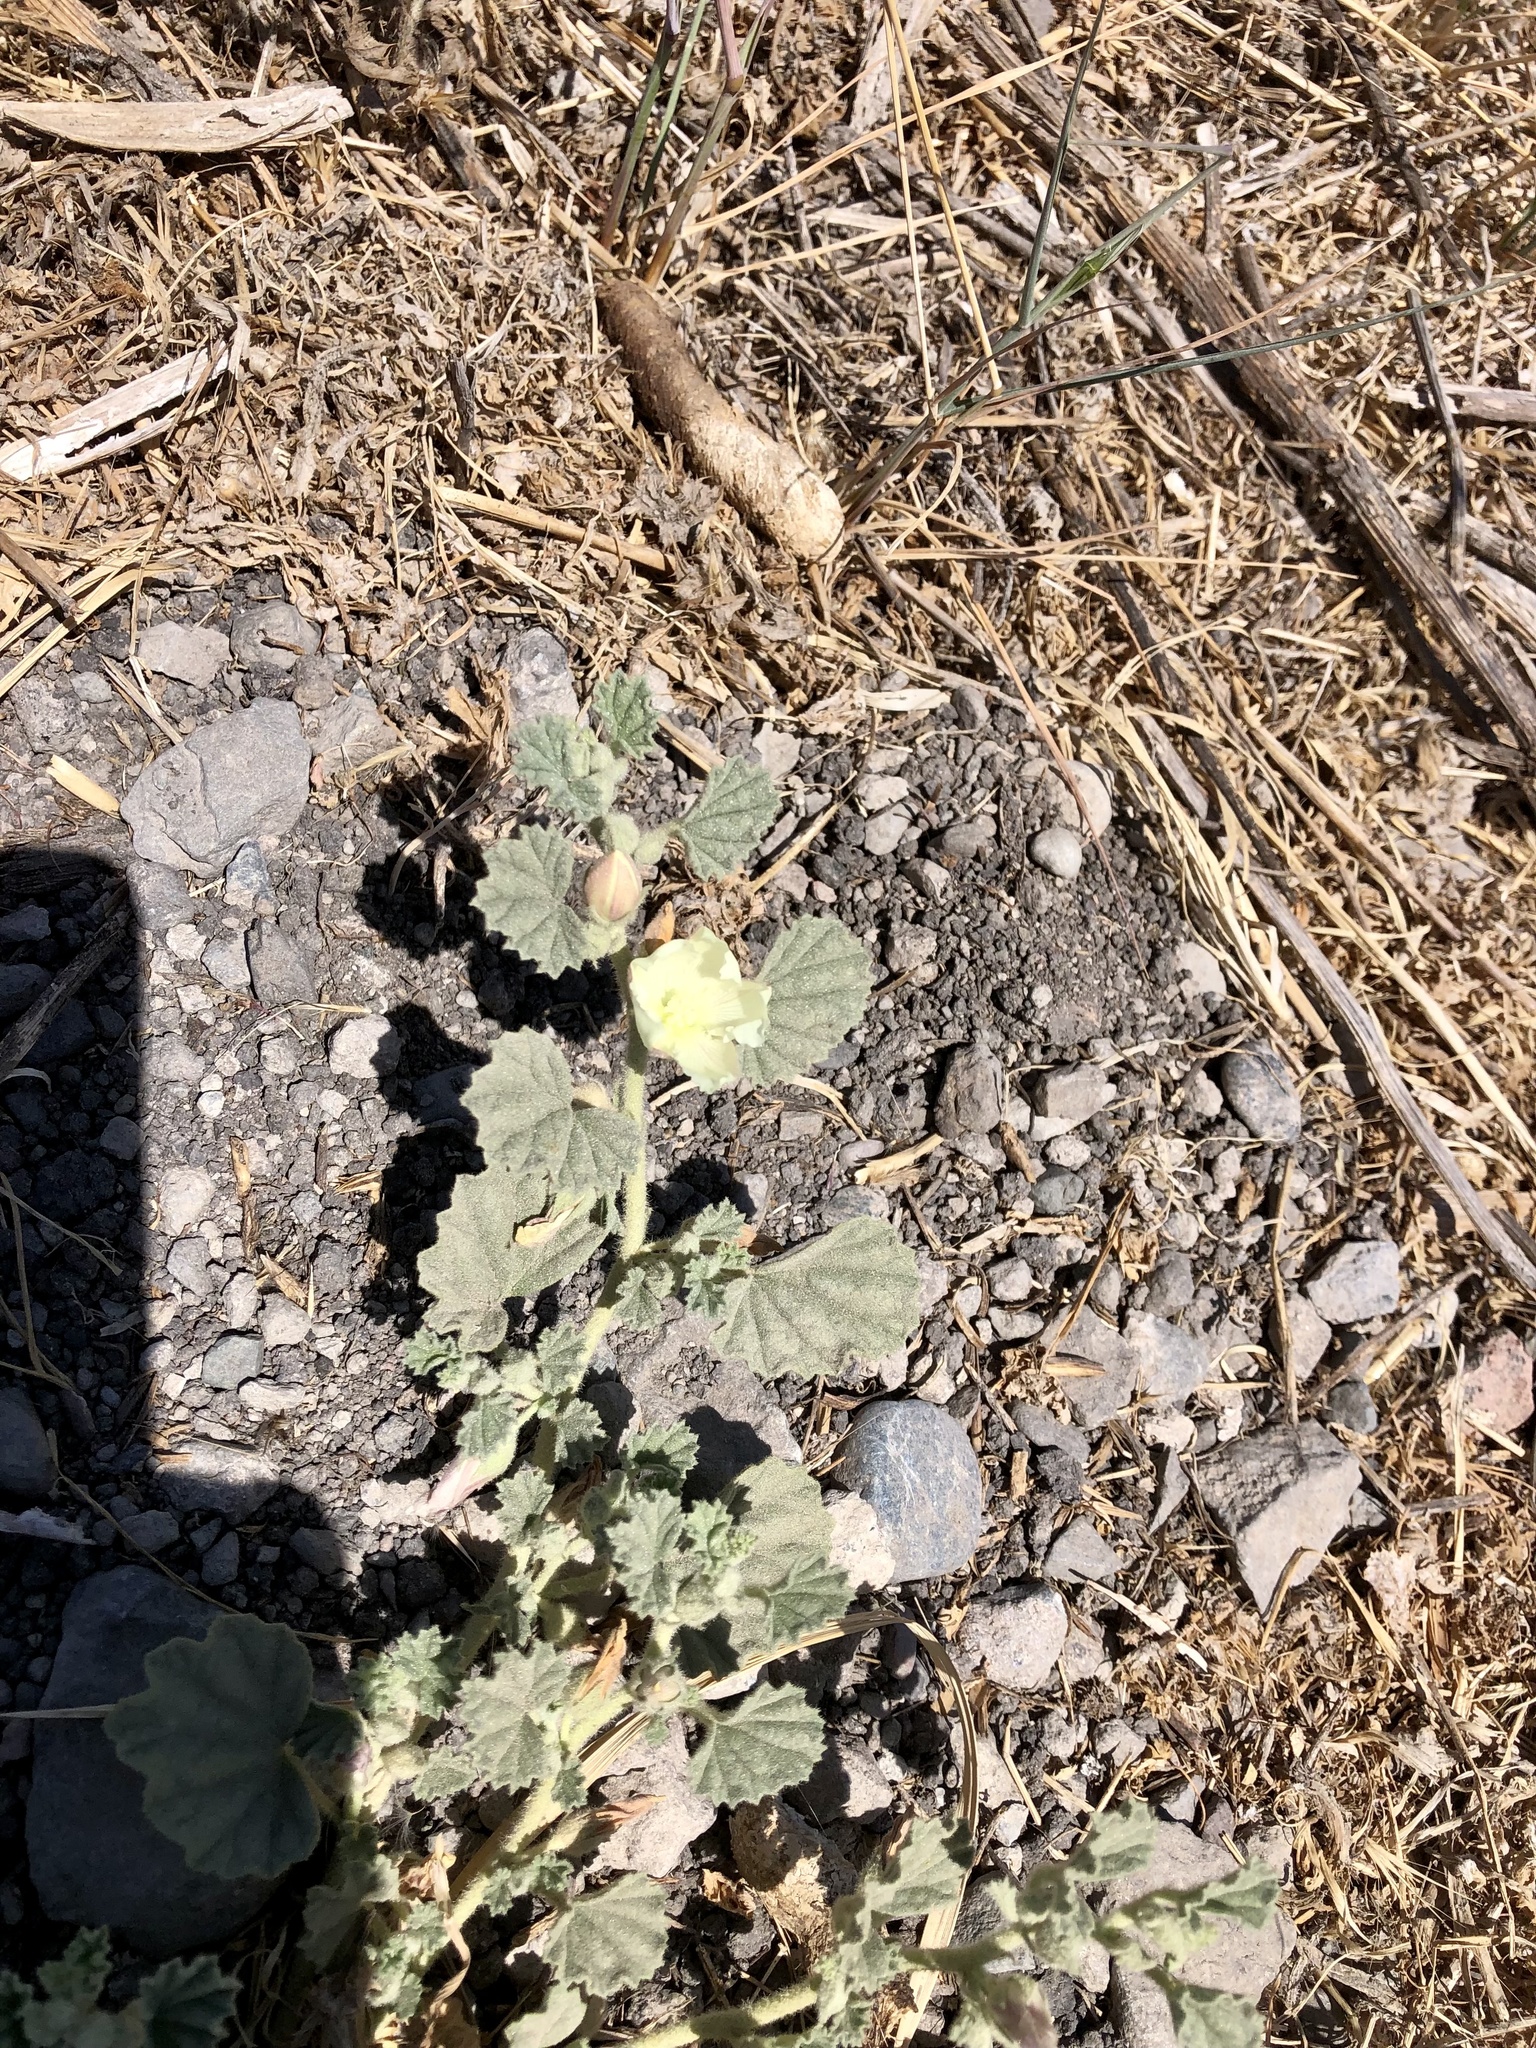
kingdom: Plantae
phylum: Tracheophyta
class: Magnoliopsida
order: Malvales
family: Malvaceae
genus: Malvella
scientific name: Malvella leprosa
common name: Alkali-mallow
